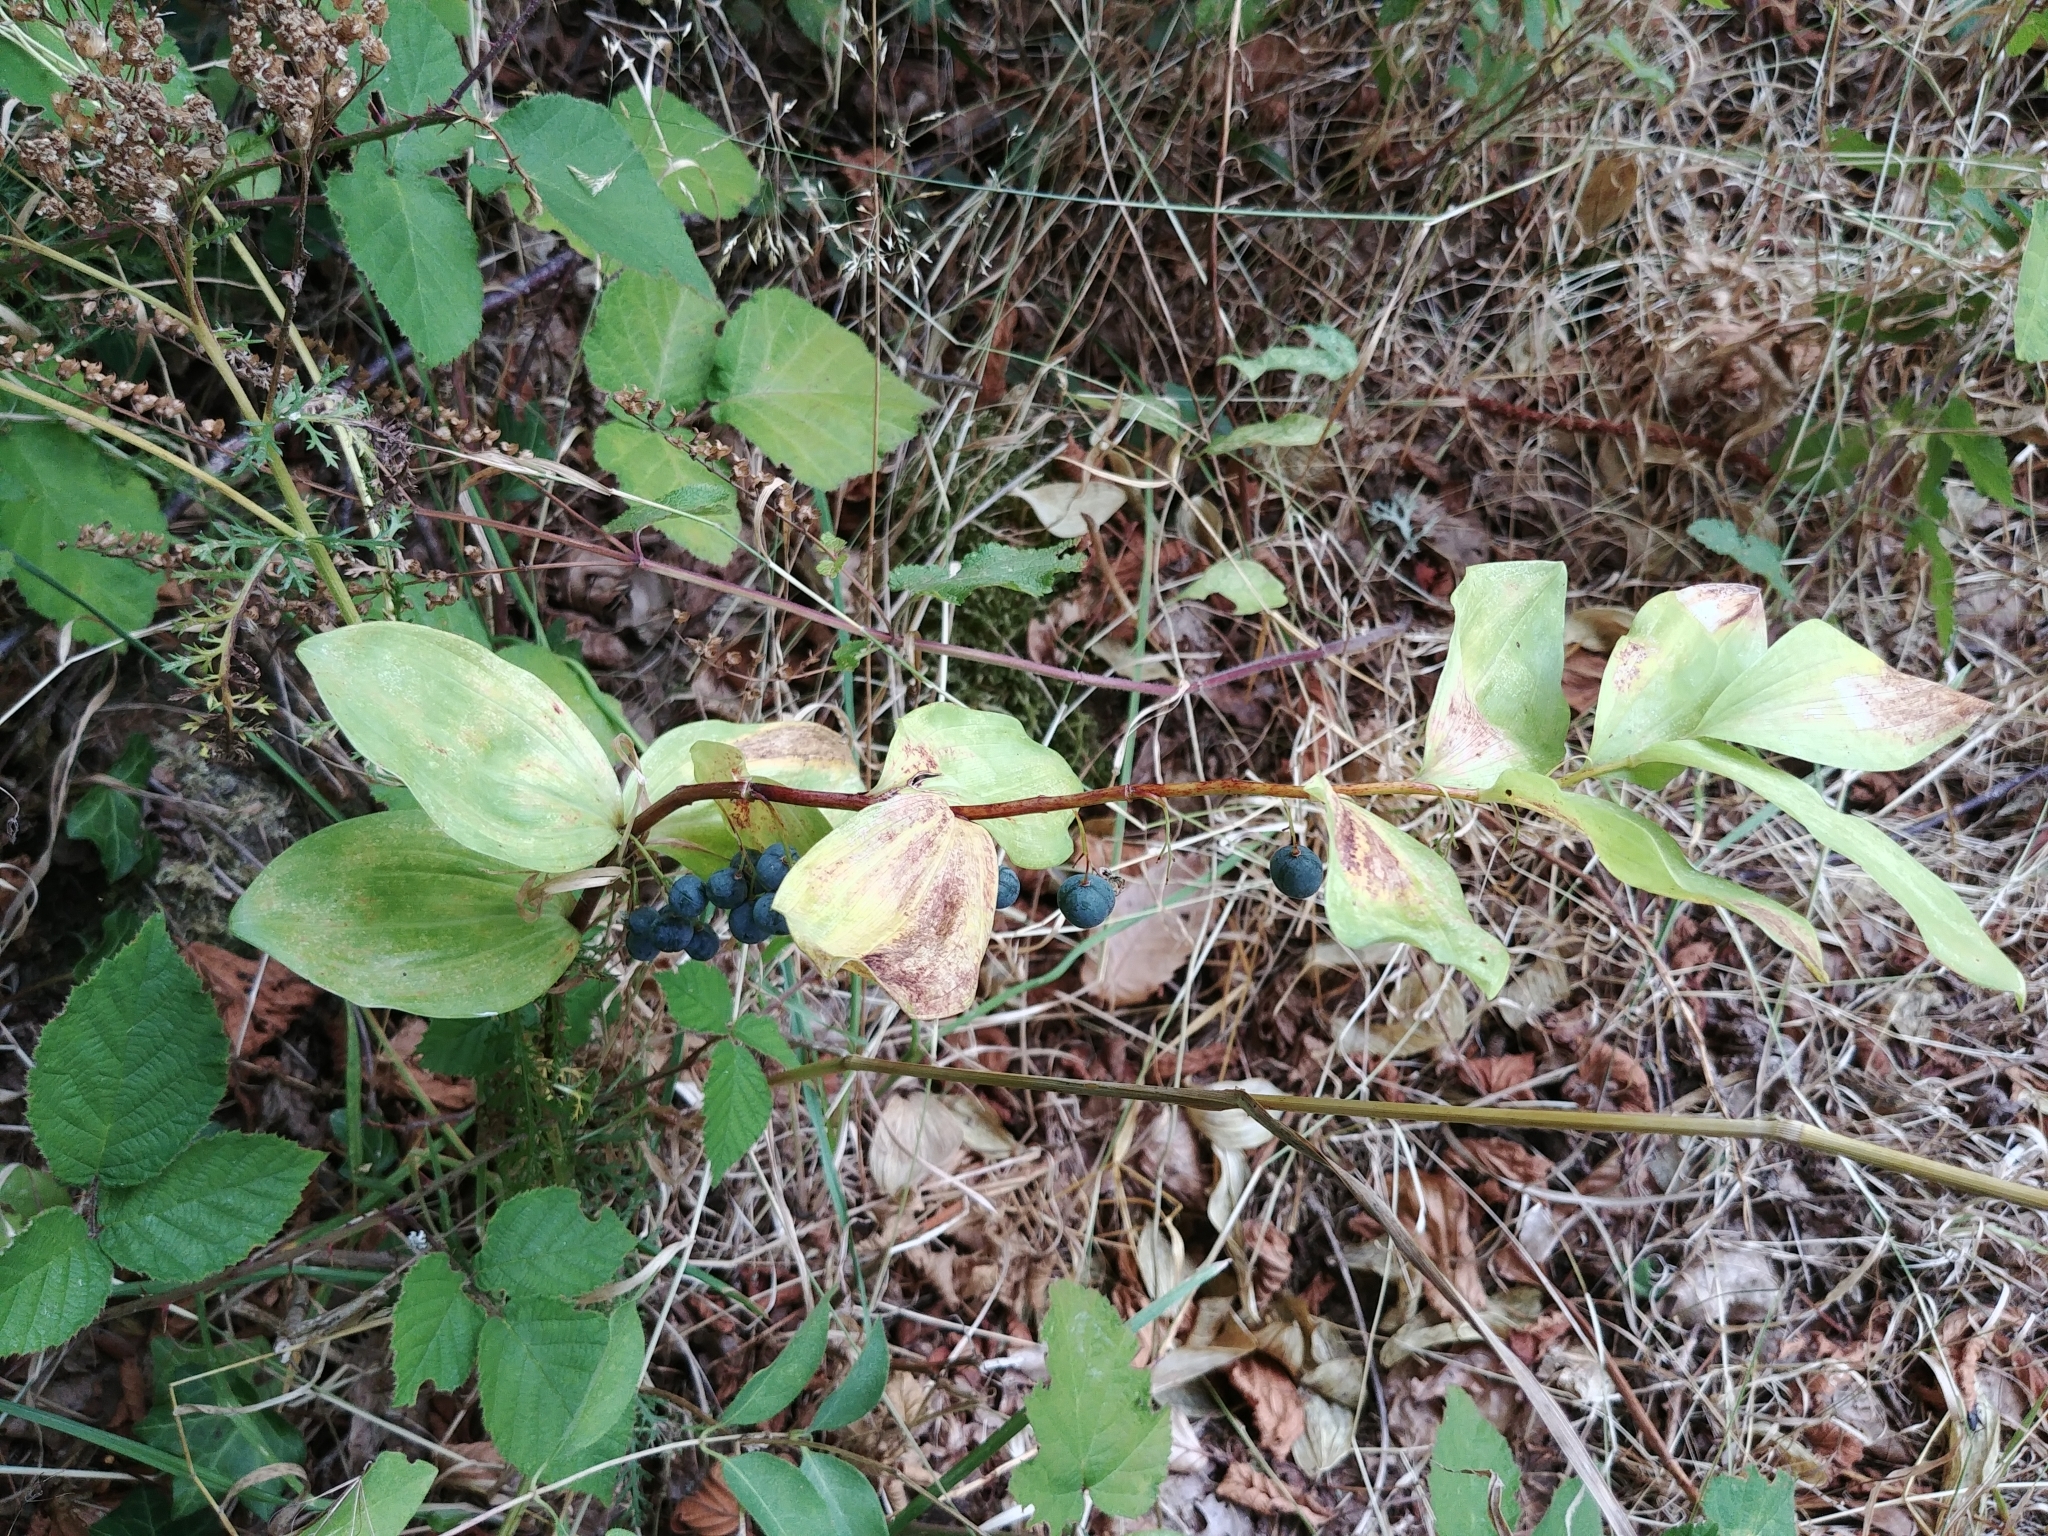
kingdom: Plantae
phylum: Tracheophyta
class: Liliopsida
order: Asparagales
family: Asparagaceae
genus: Polygonatum
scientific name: Polygonatum multiflorum
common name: Solomon's-seal
